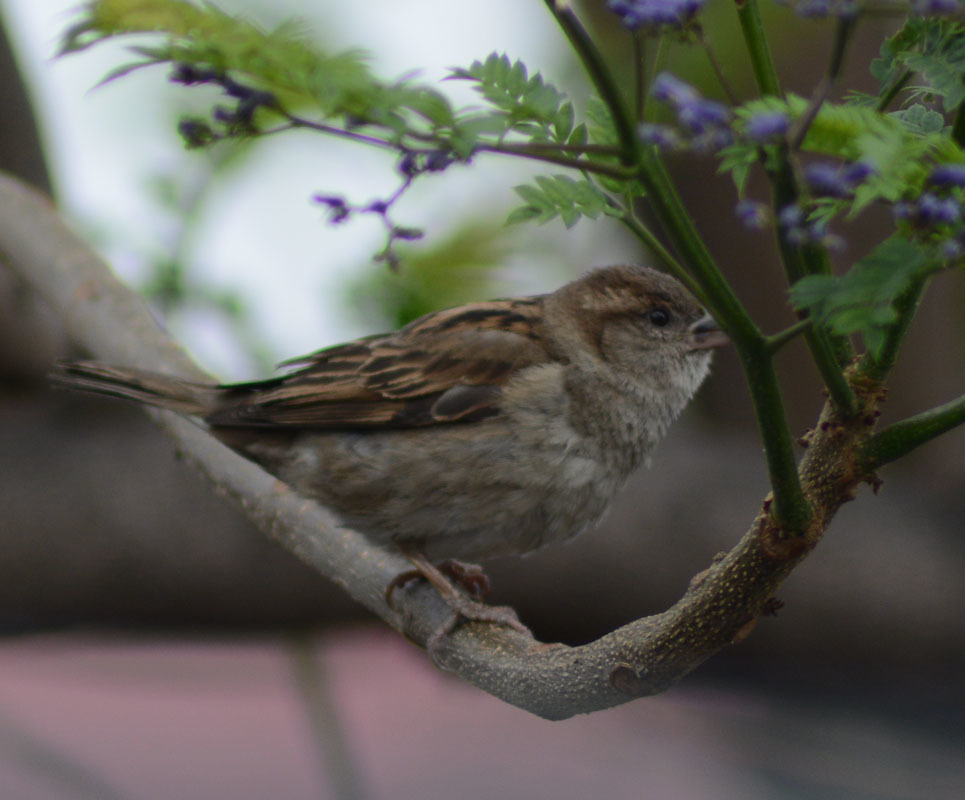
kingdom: Animalia
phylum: Chordata
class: Aves
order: Passeriformes
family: Passeridae
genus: Passer
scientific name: Passer domesticus
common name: House sparrow
